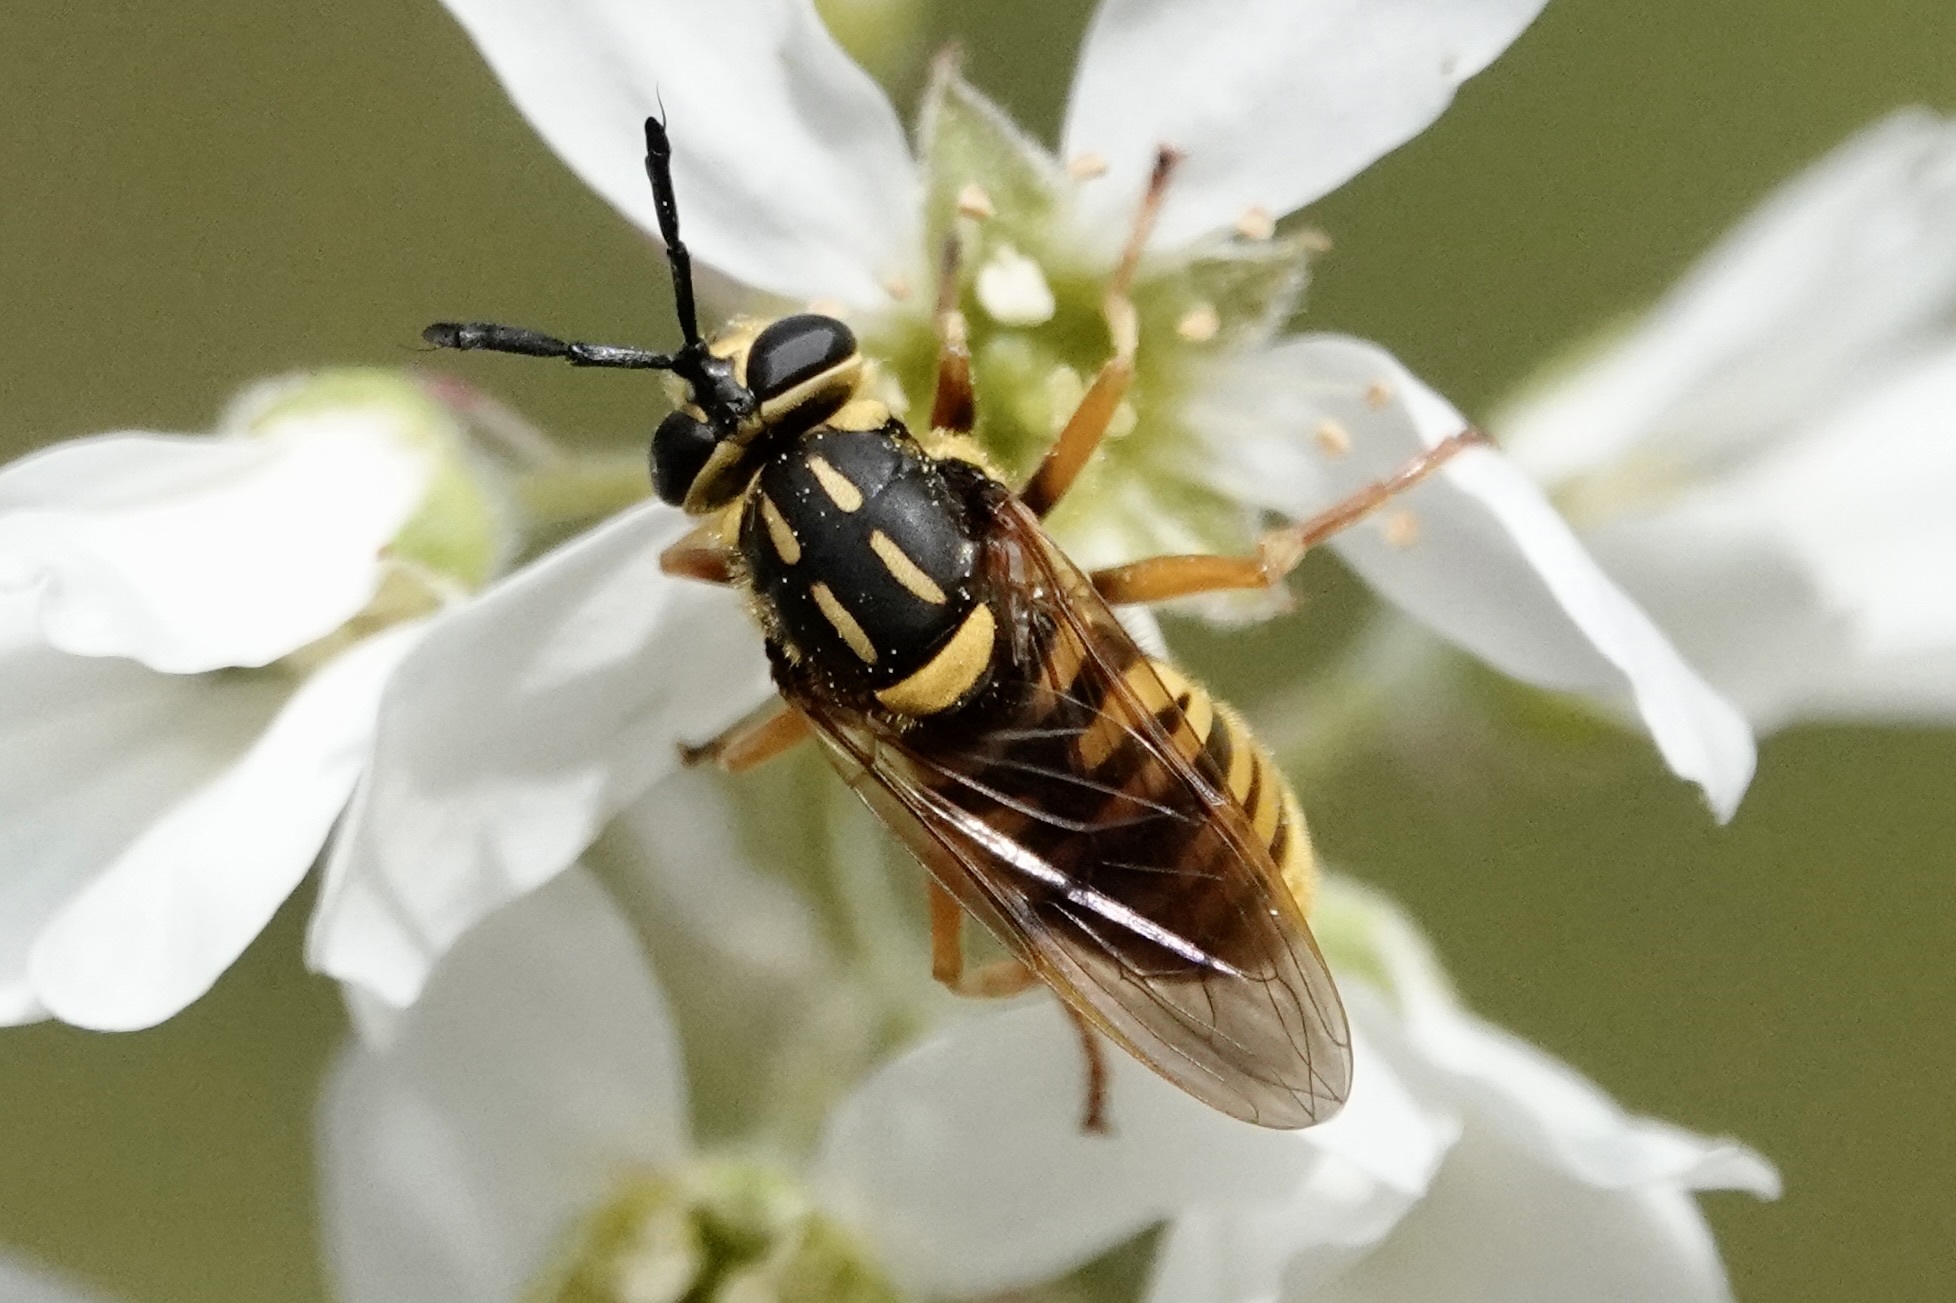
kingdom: Animalia
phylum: Arthropoda
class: Insecta
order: Diptera
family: Syrphidae
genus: Sphecomyia
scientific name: Sphecomyia vittata
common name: Long-horned yellowjacket fly
